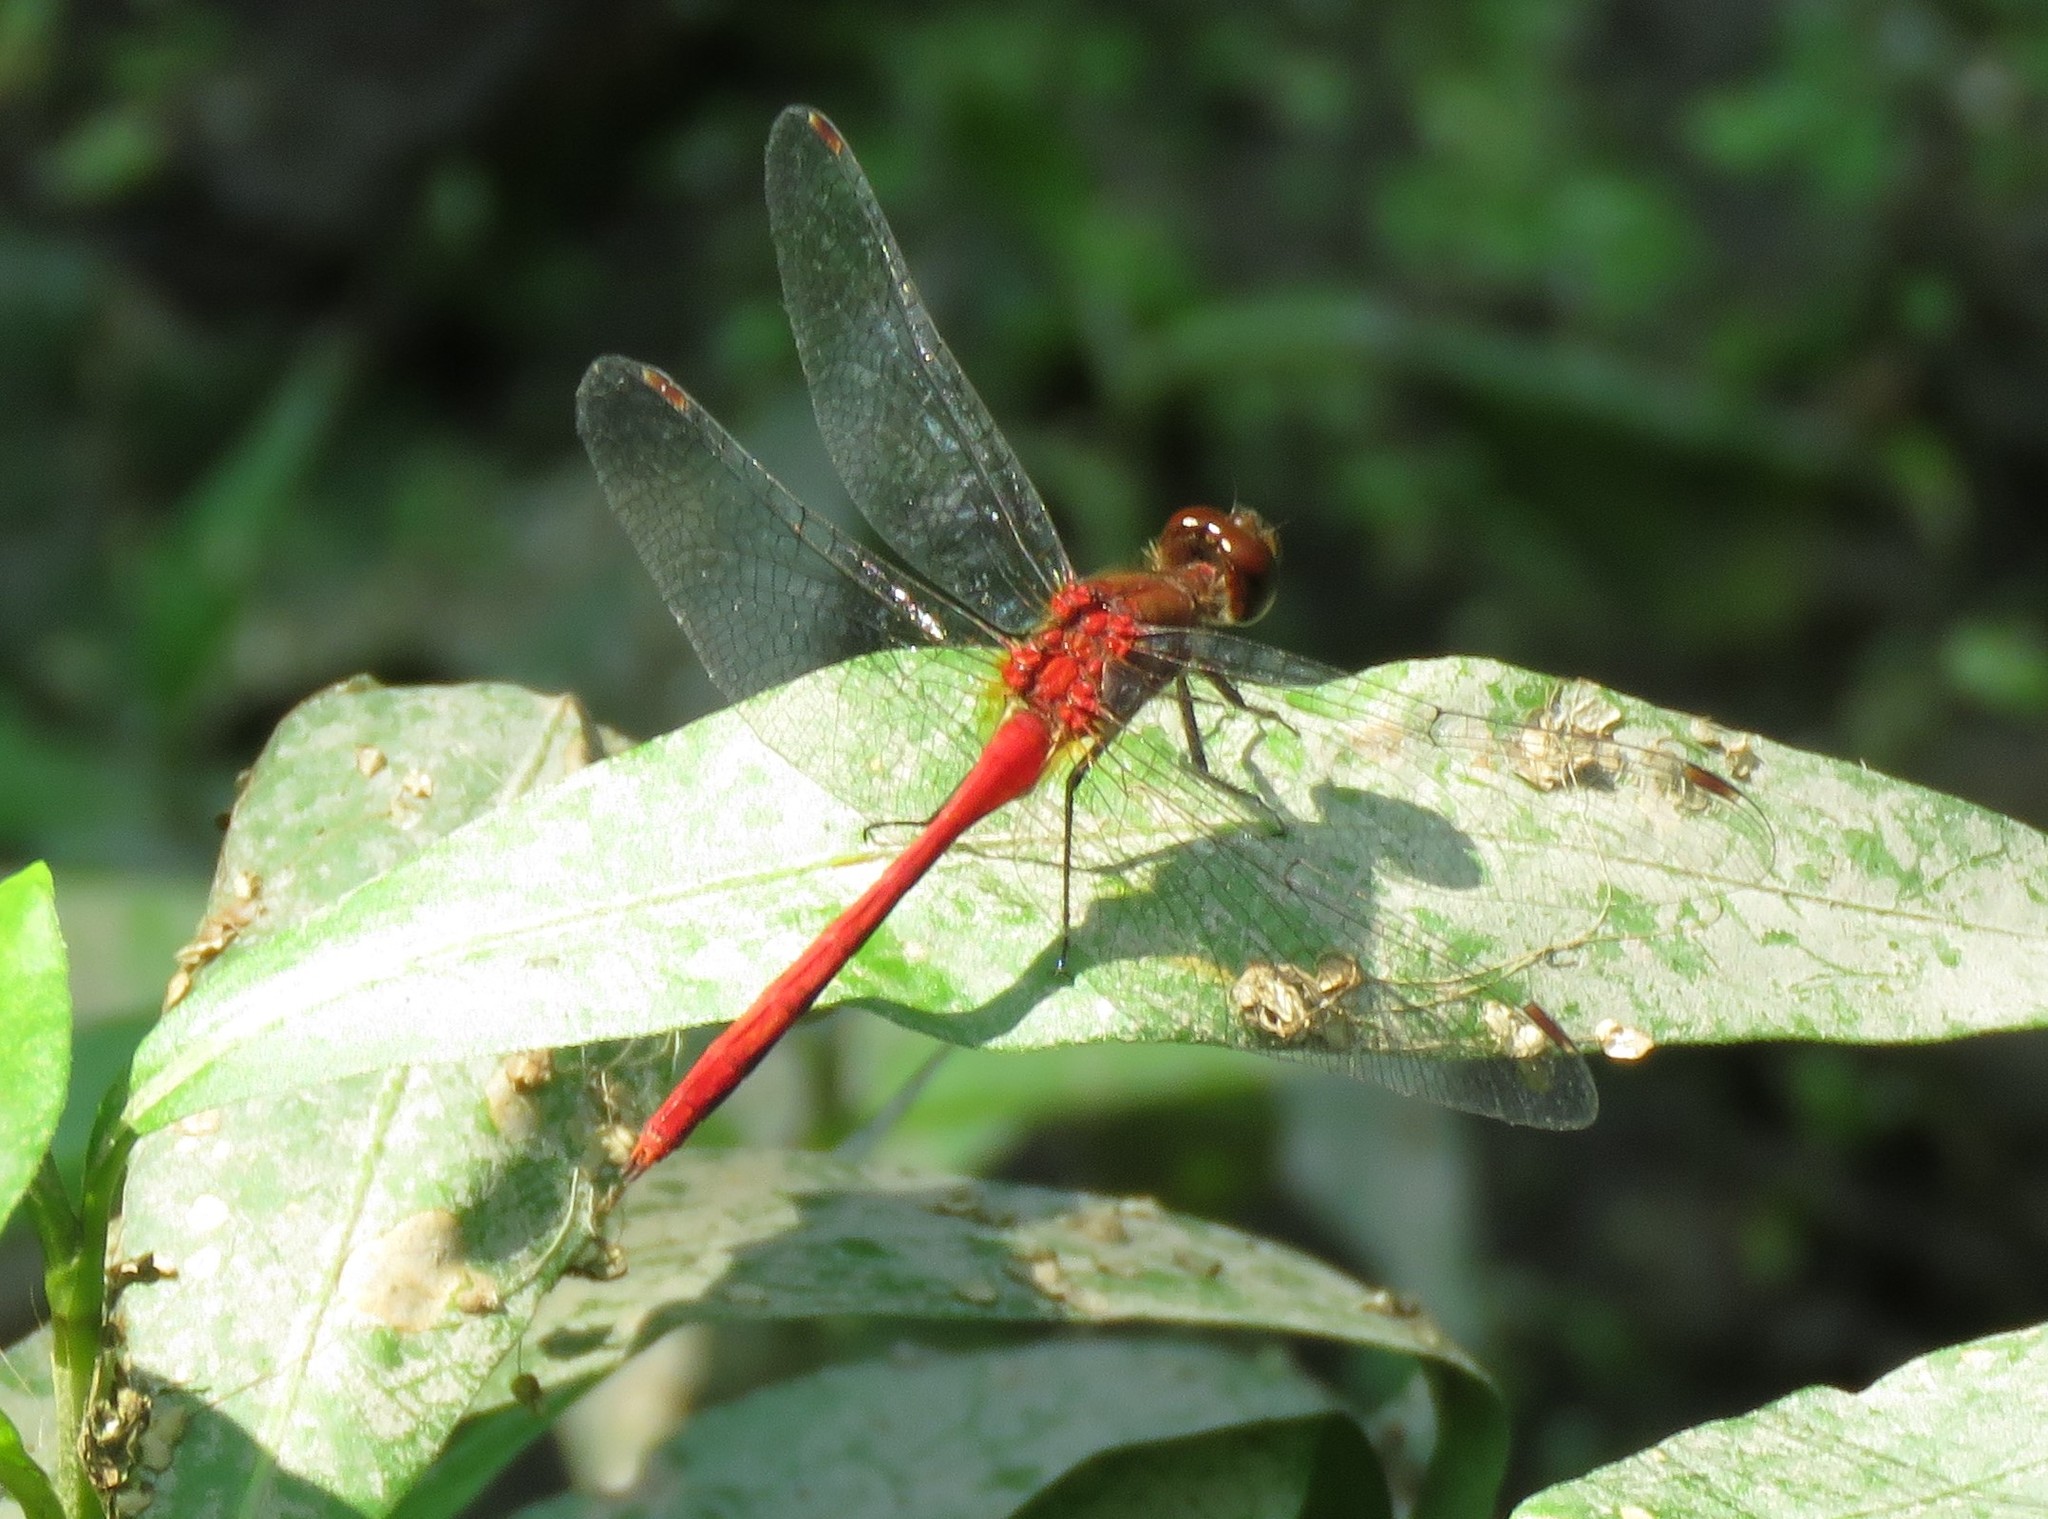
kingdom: Animalia
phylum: Arthropoda
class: Insecta
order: Odonata
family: Libellulidae
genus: Sympetrum
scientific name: Sympetrum vicinum
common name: Autumn meadowhawk
